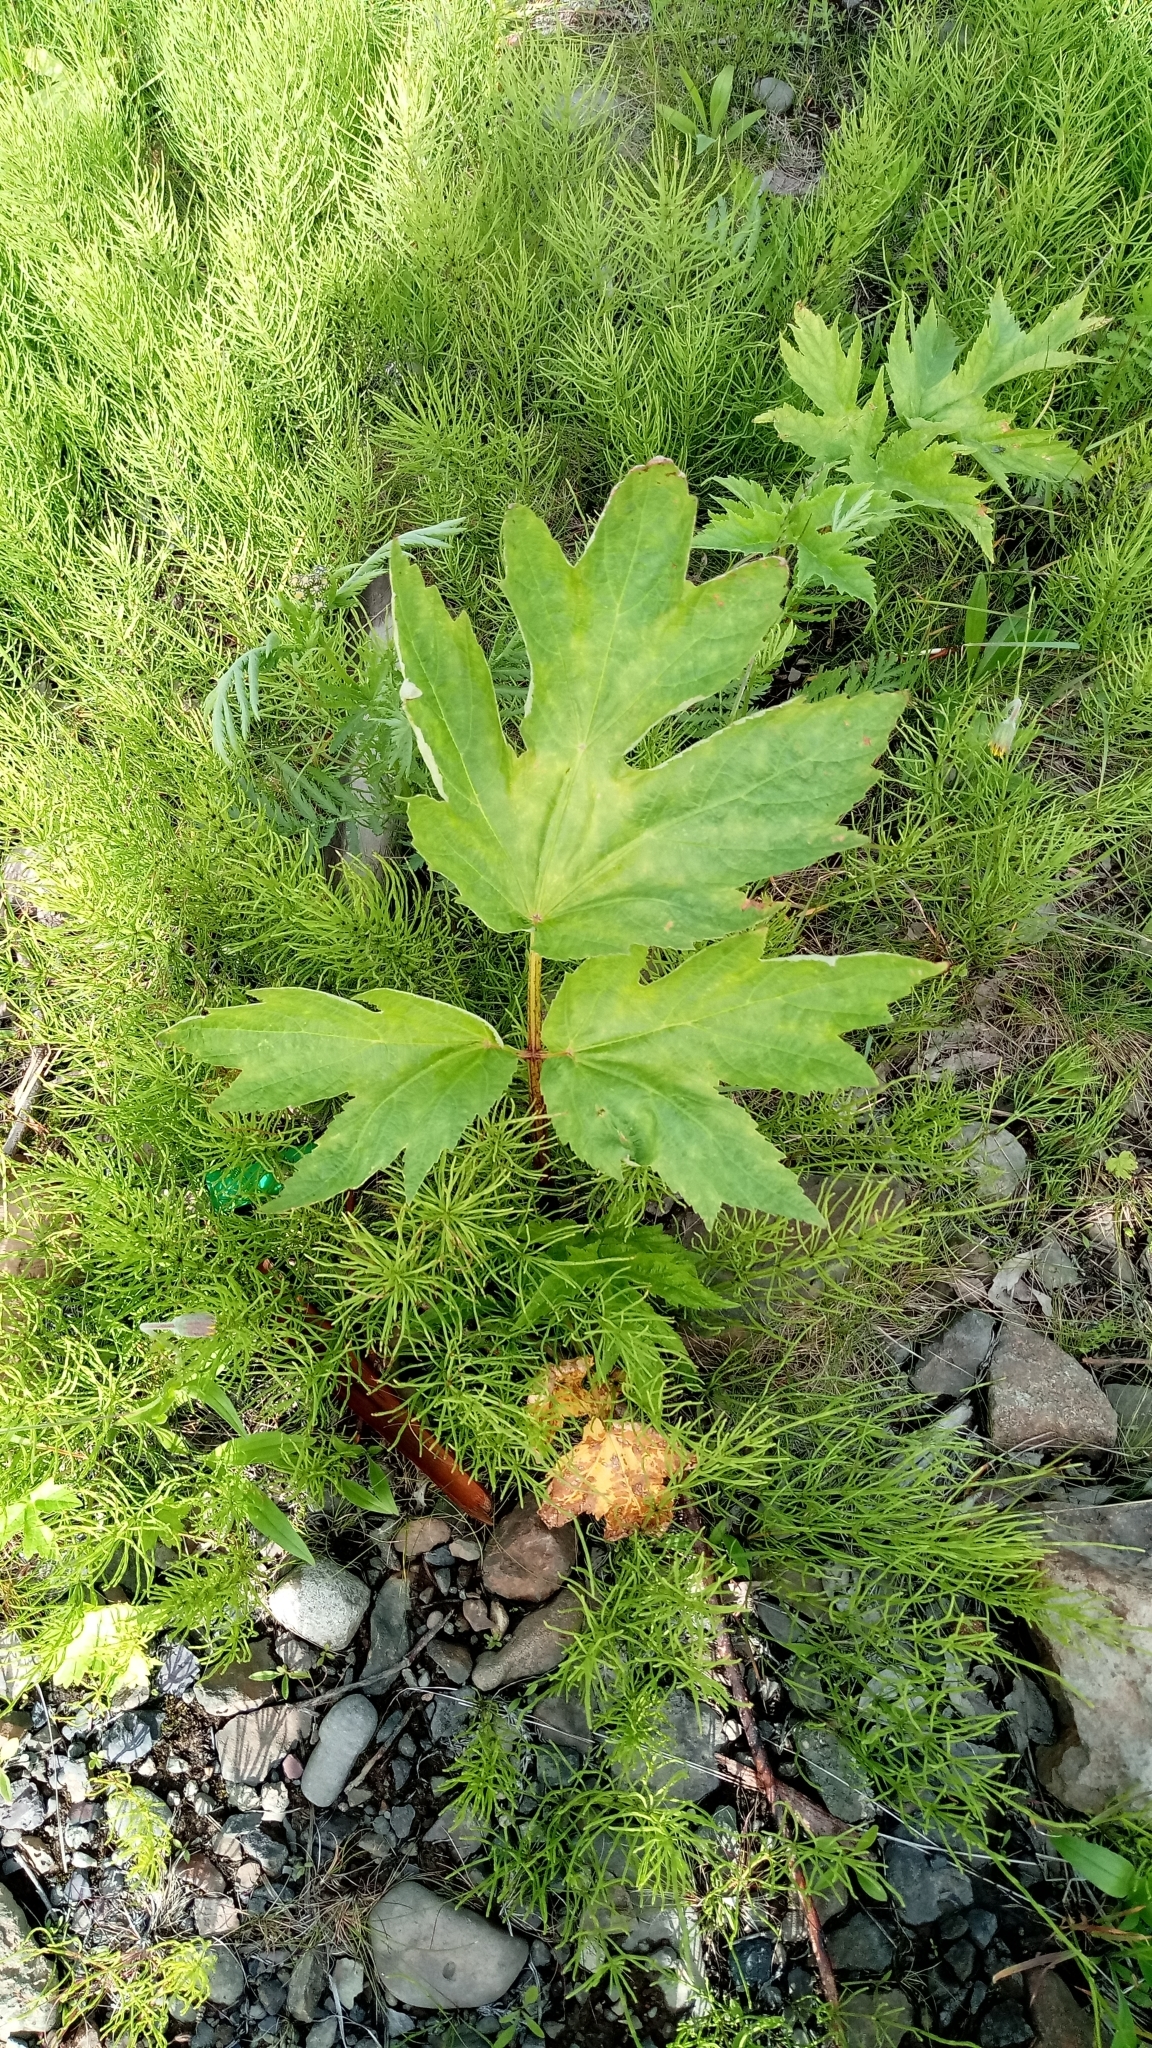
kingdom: Plantae
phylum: Tracheophyta
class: Magnoliopsida
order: Apiales
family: Apiaceae
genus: Heracleum
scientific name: Heracleum dissectum
